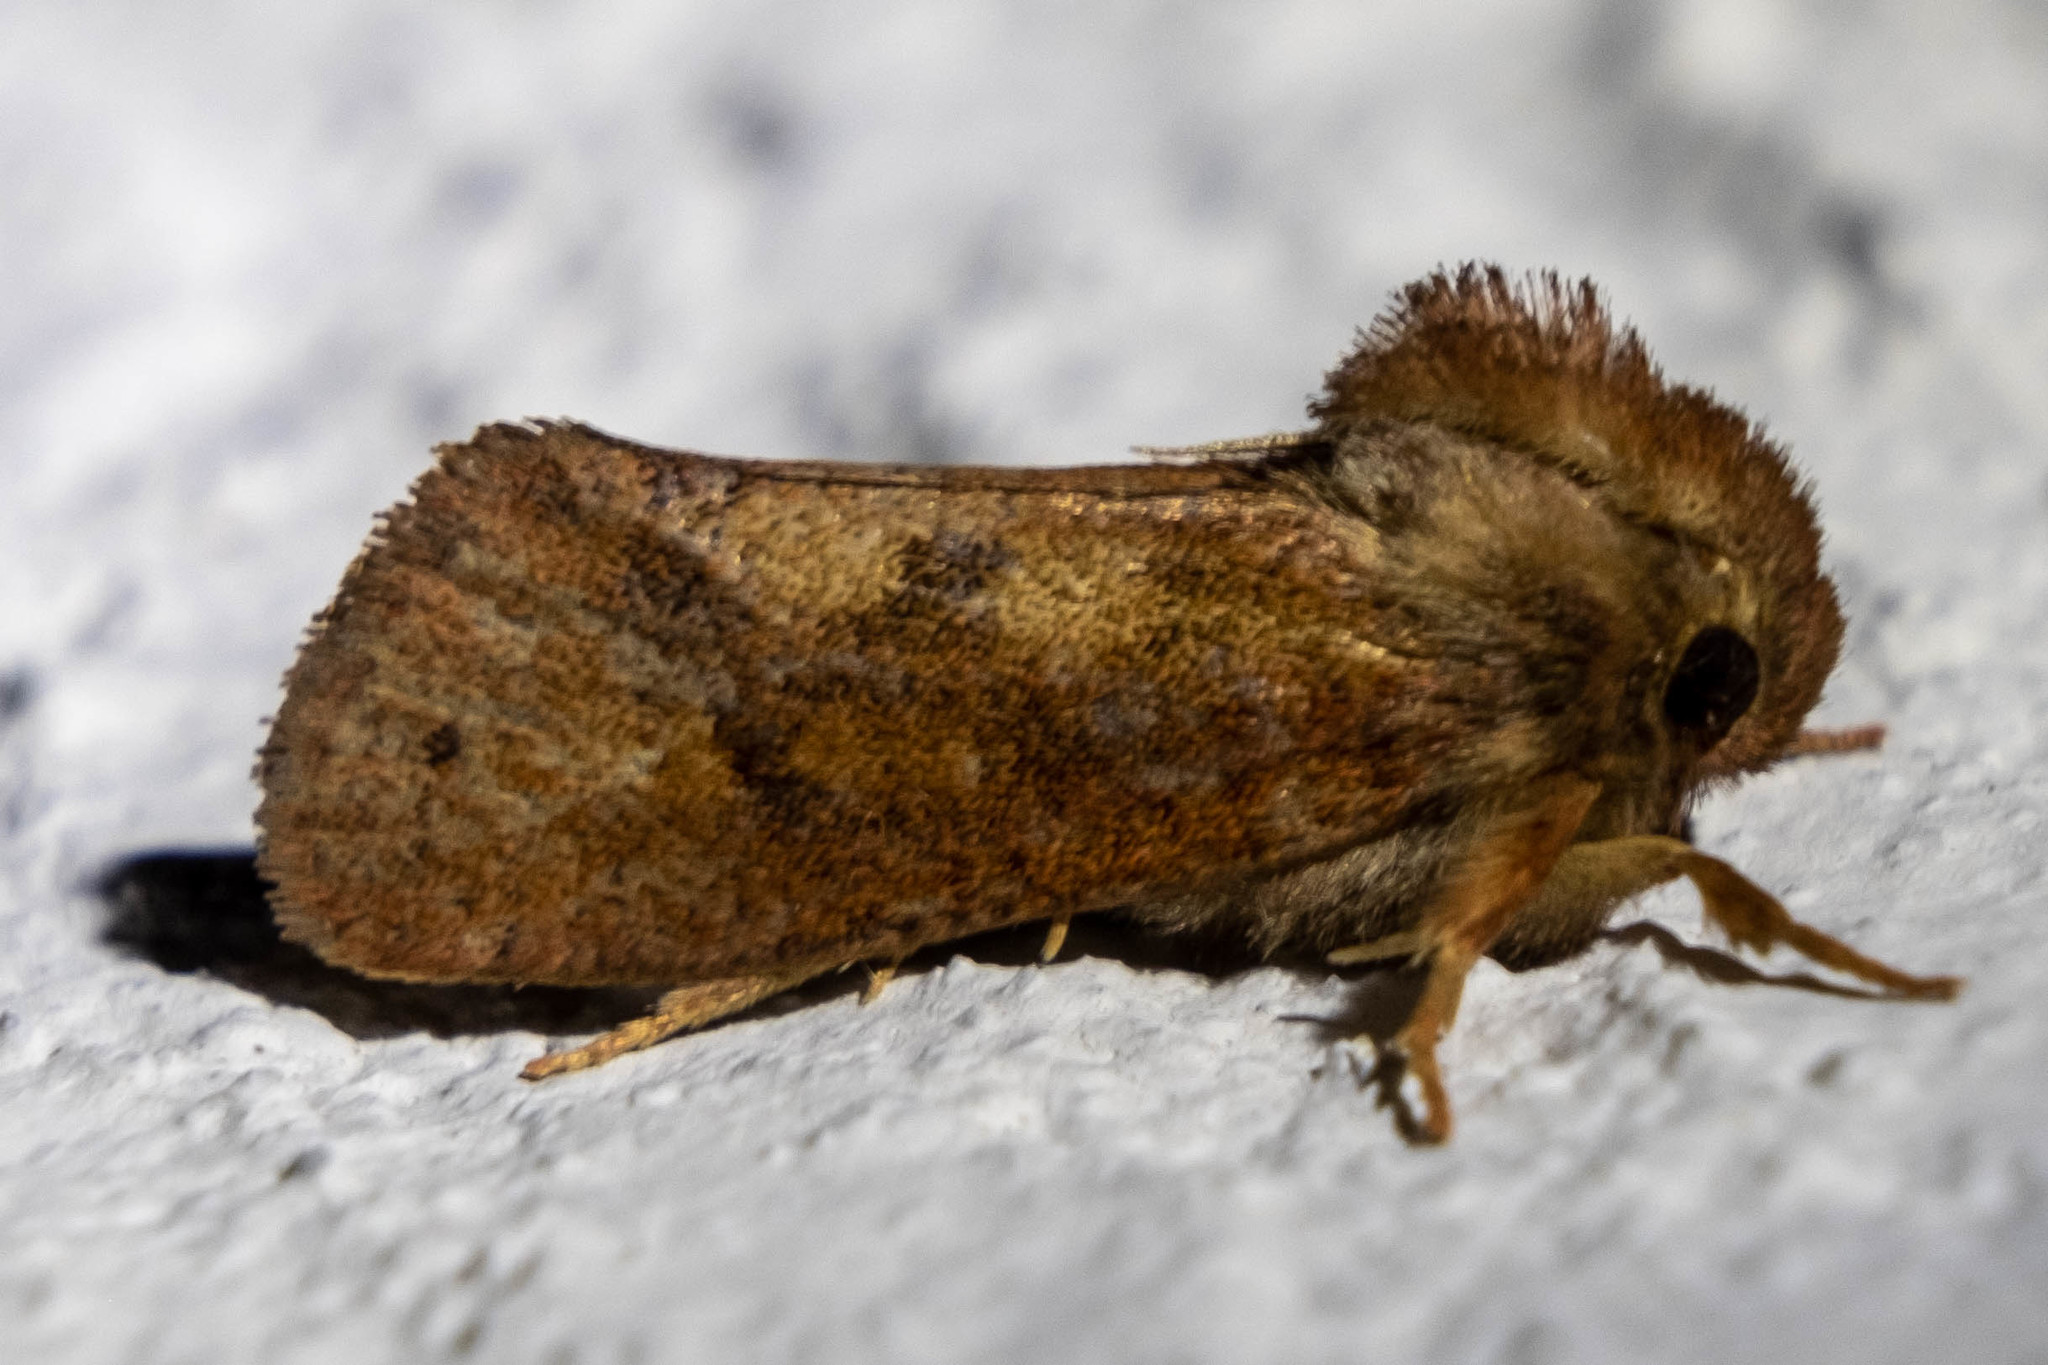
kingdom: Animalia
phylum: Arthropoda
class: Insecta
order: Lepidoptera
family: Tineidae
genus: Acrolophus
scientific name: Acrolophus plumifrontella
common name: Eastern grass tubeworm moth
